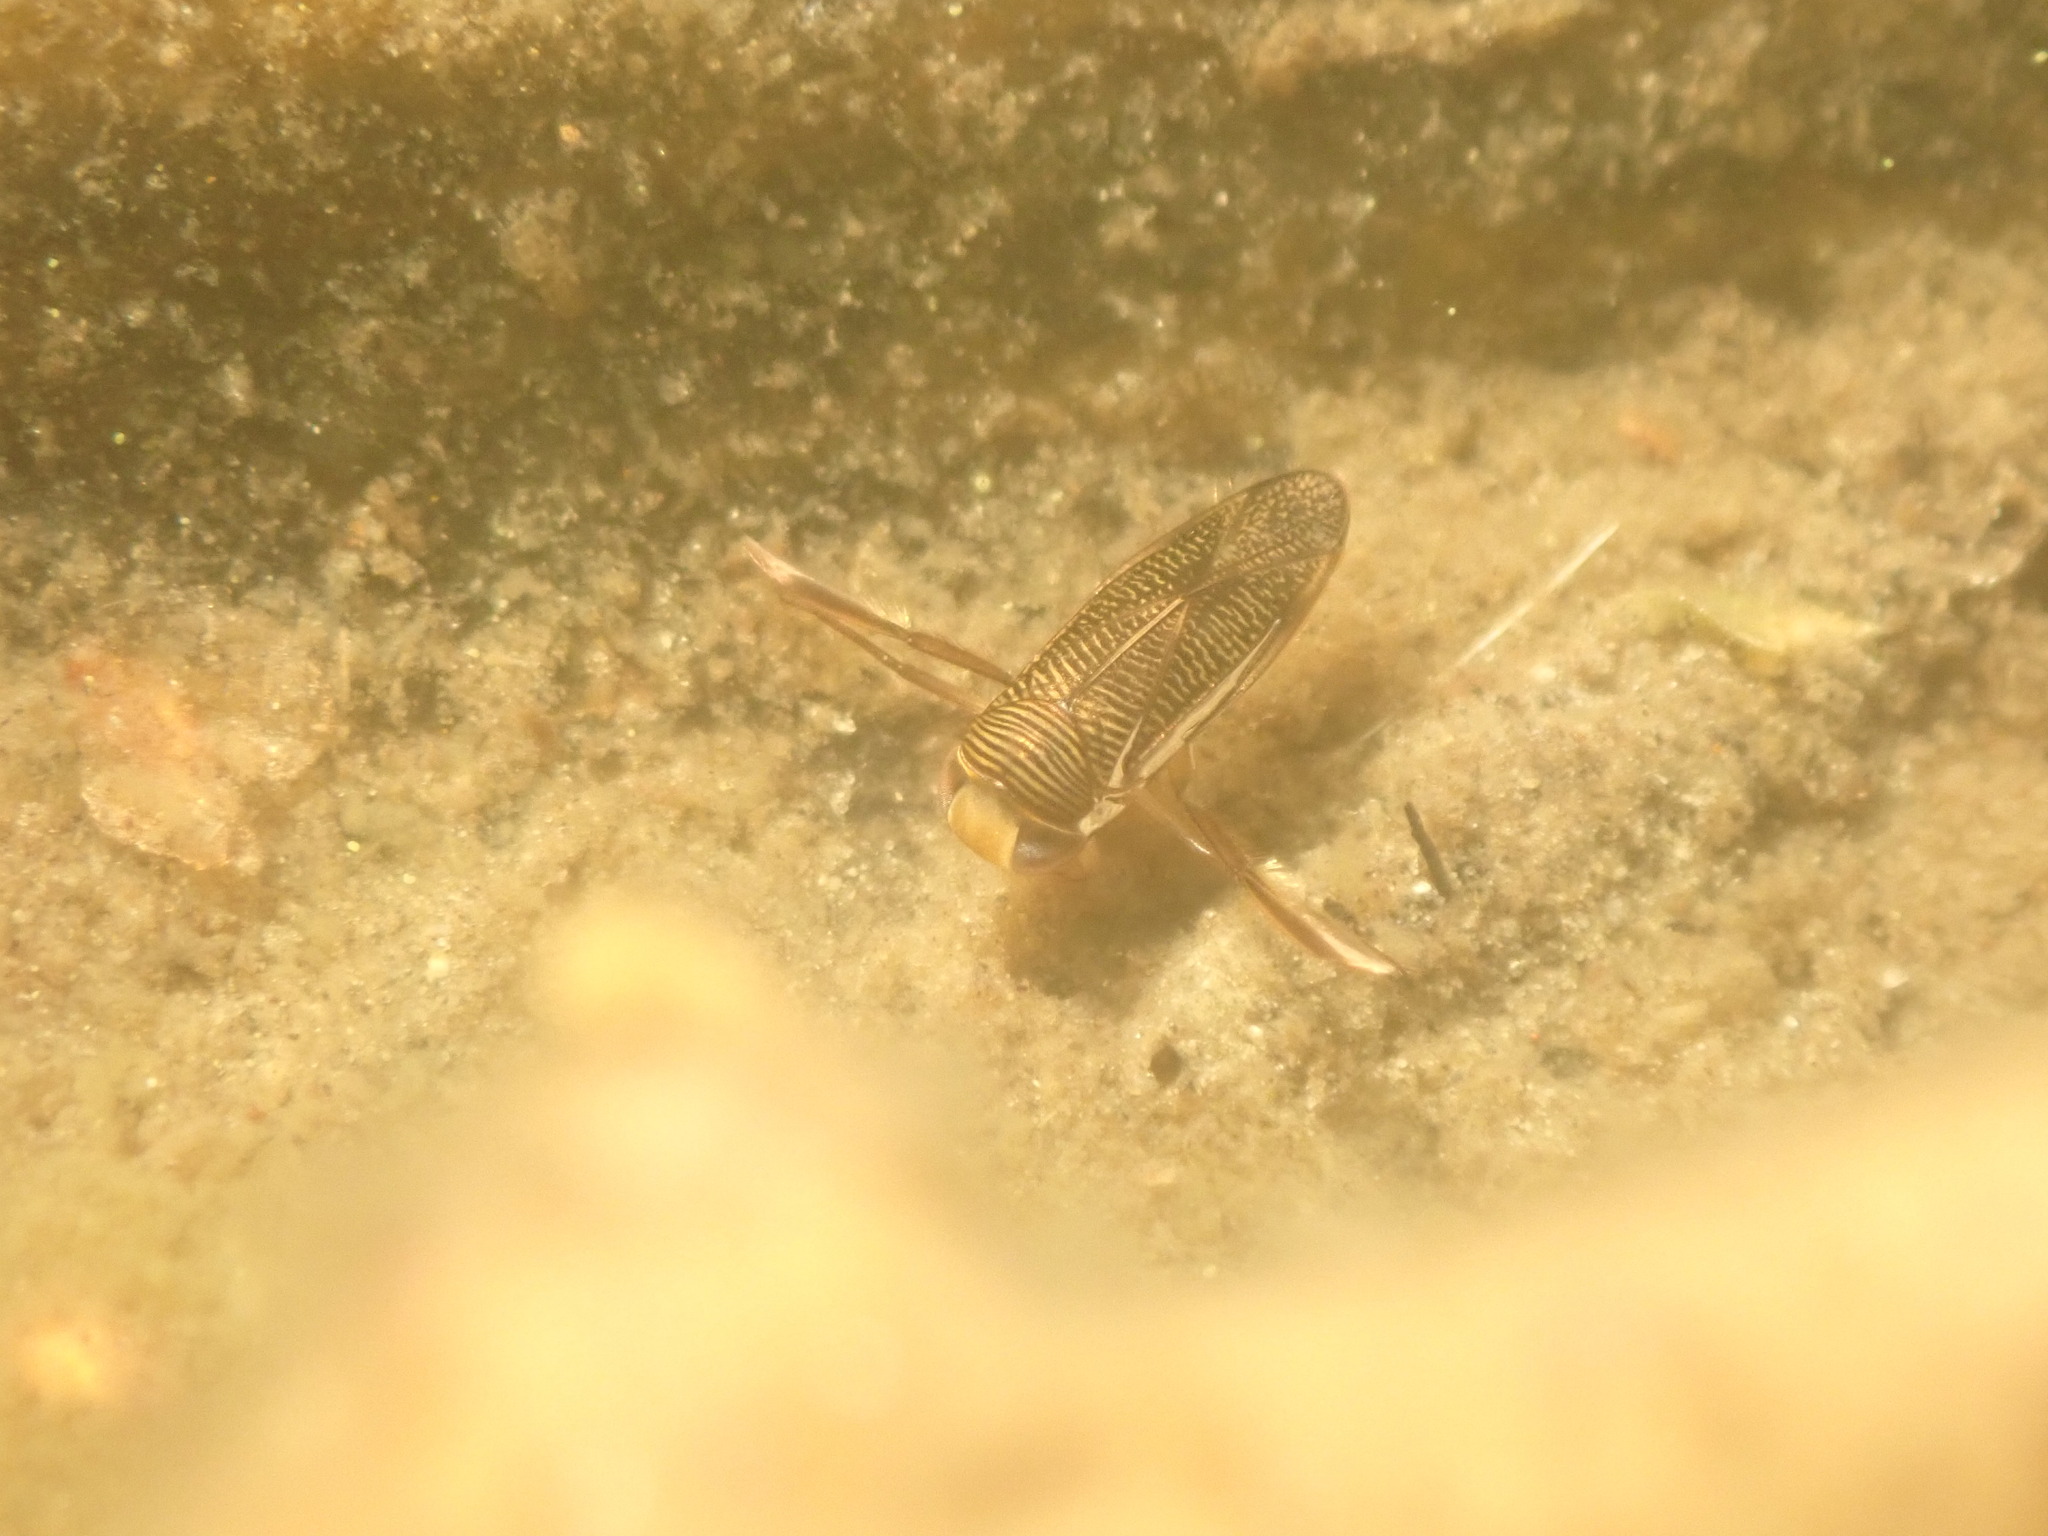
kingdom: Animalia
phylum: Arthropoda
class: Insecta
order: Hemiptera
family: Corixidae
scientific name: Corixidae
